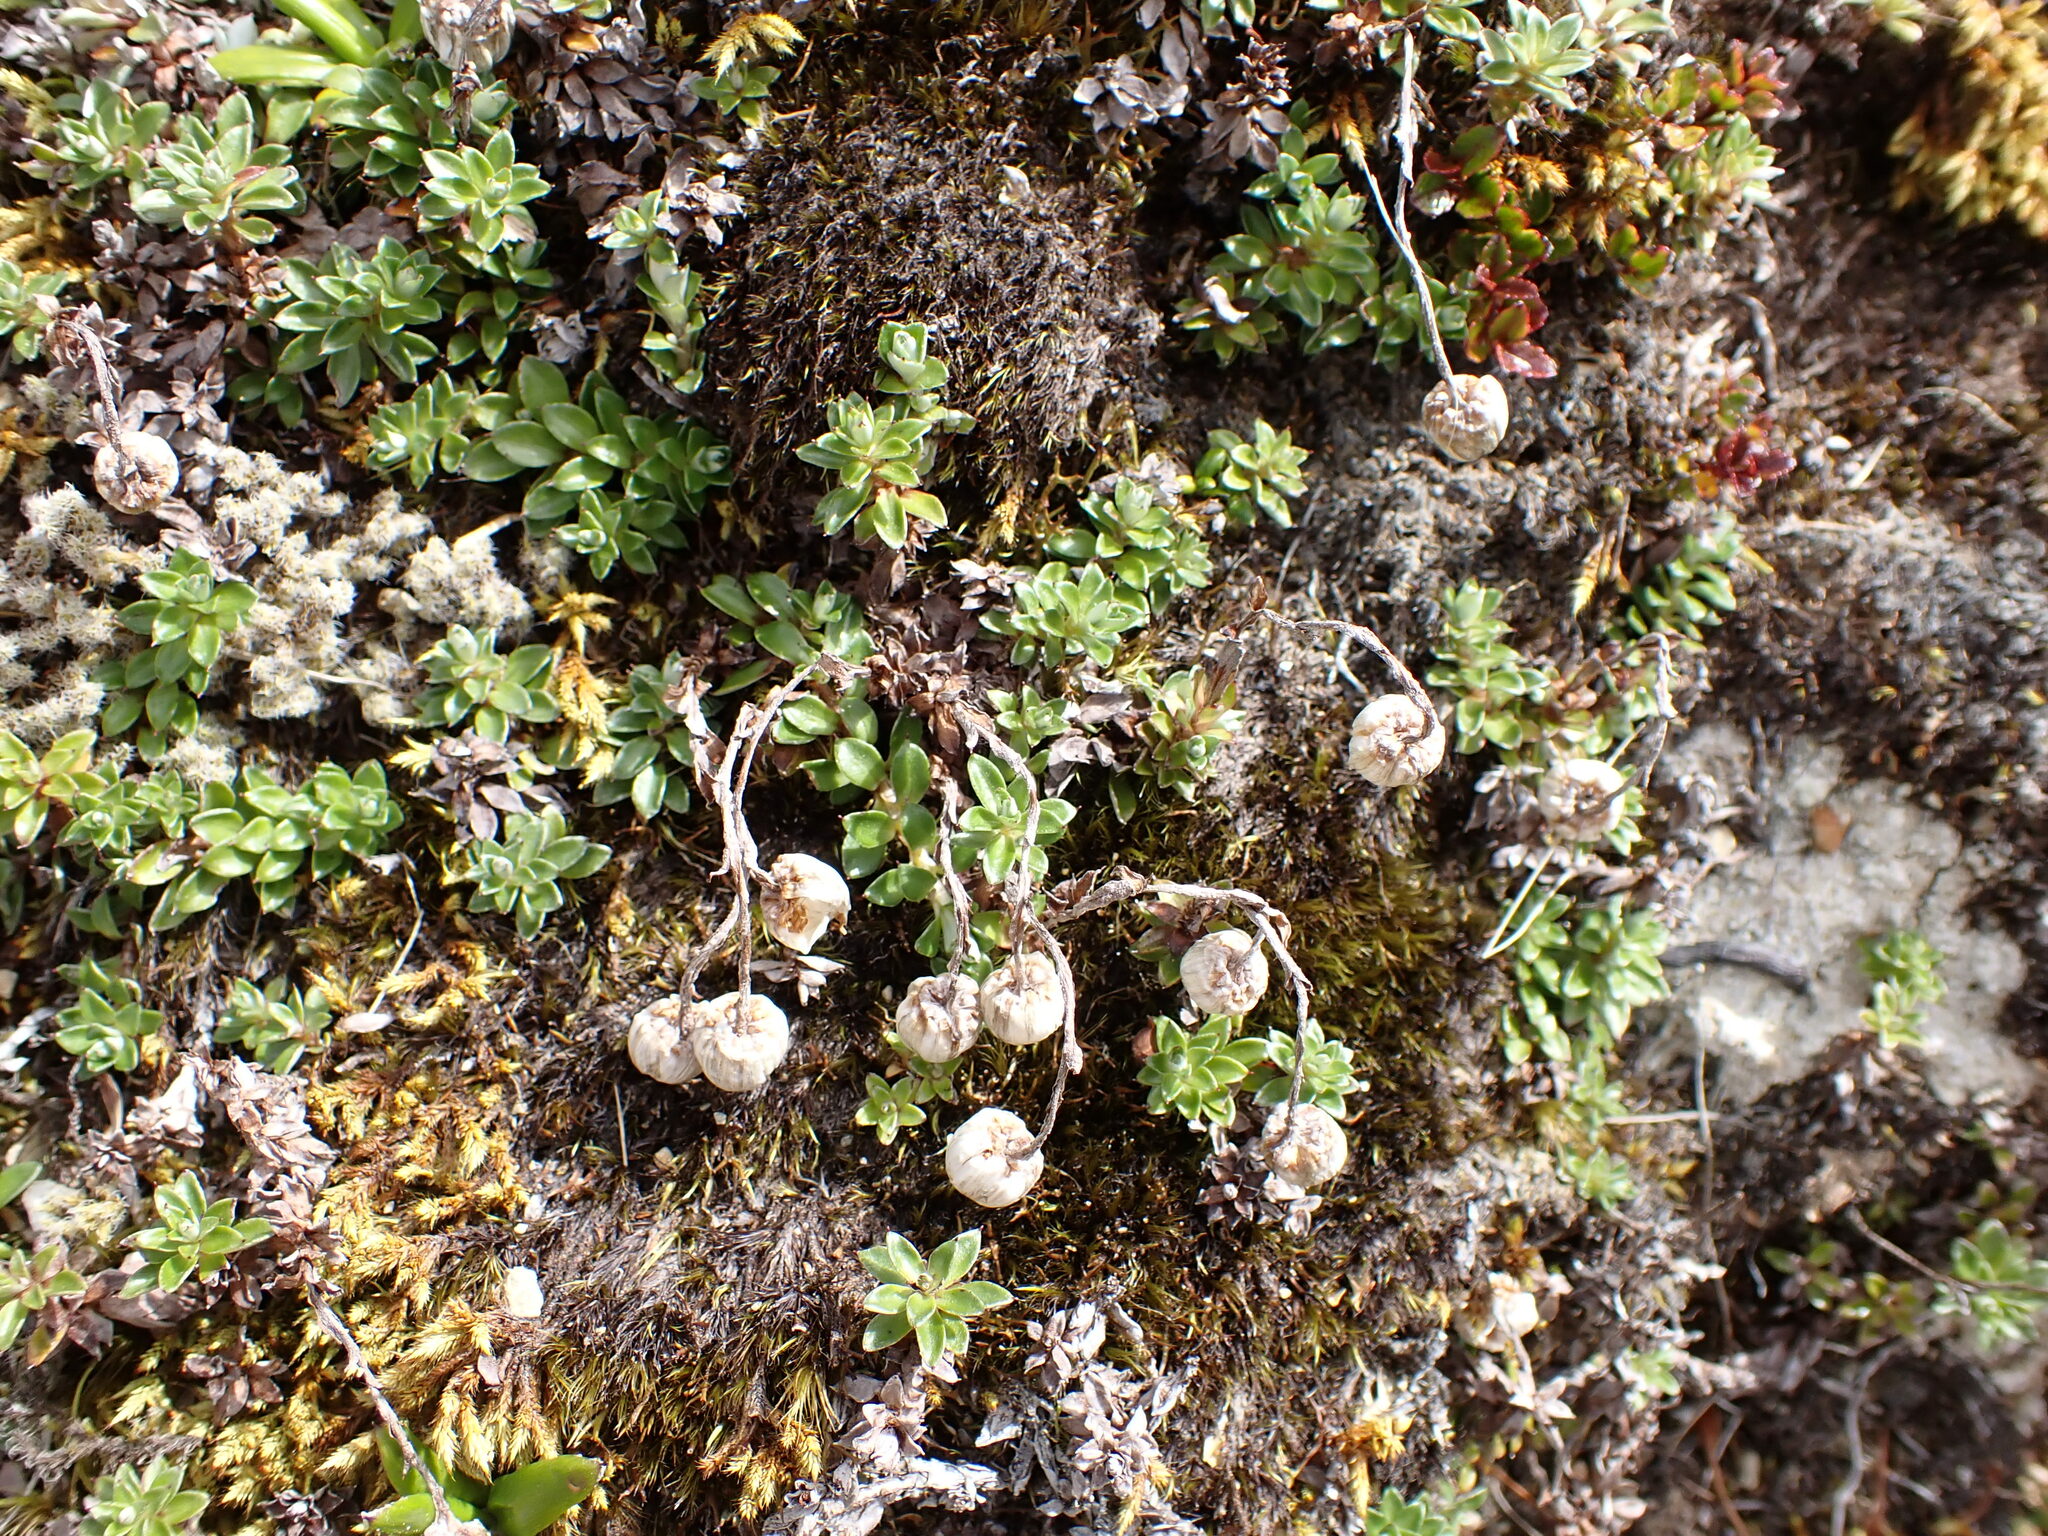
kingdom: Plantae
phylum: Tracheophyta
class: Magnoliopsida
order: Asterales
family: Asteraceae
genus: Anaphalioides
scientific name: Anaphalioides bellidioides
